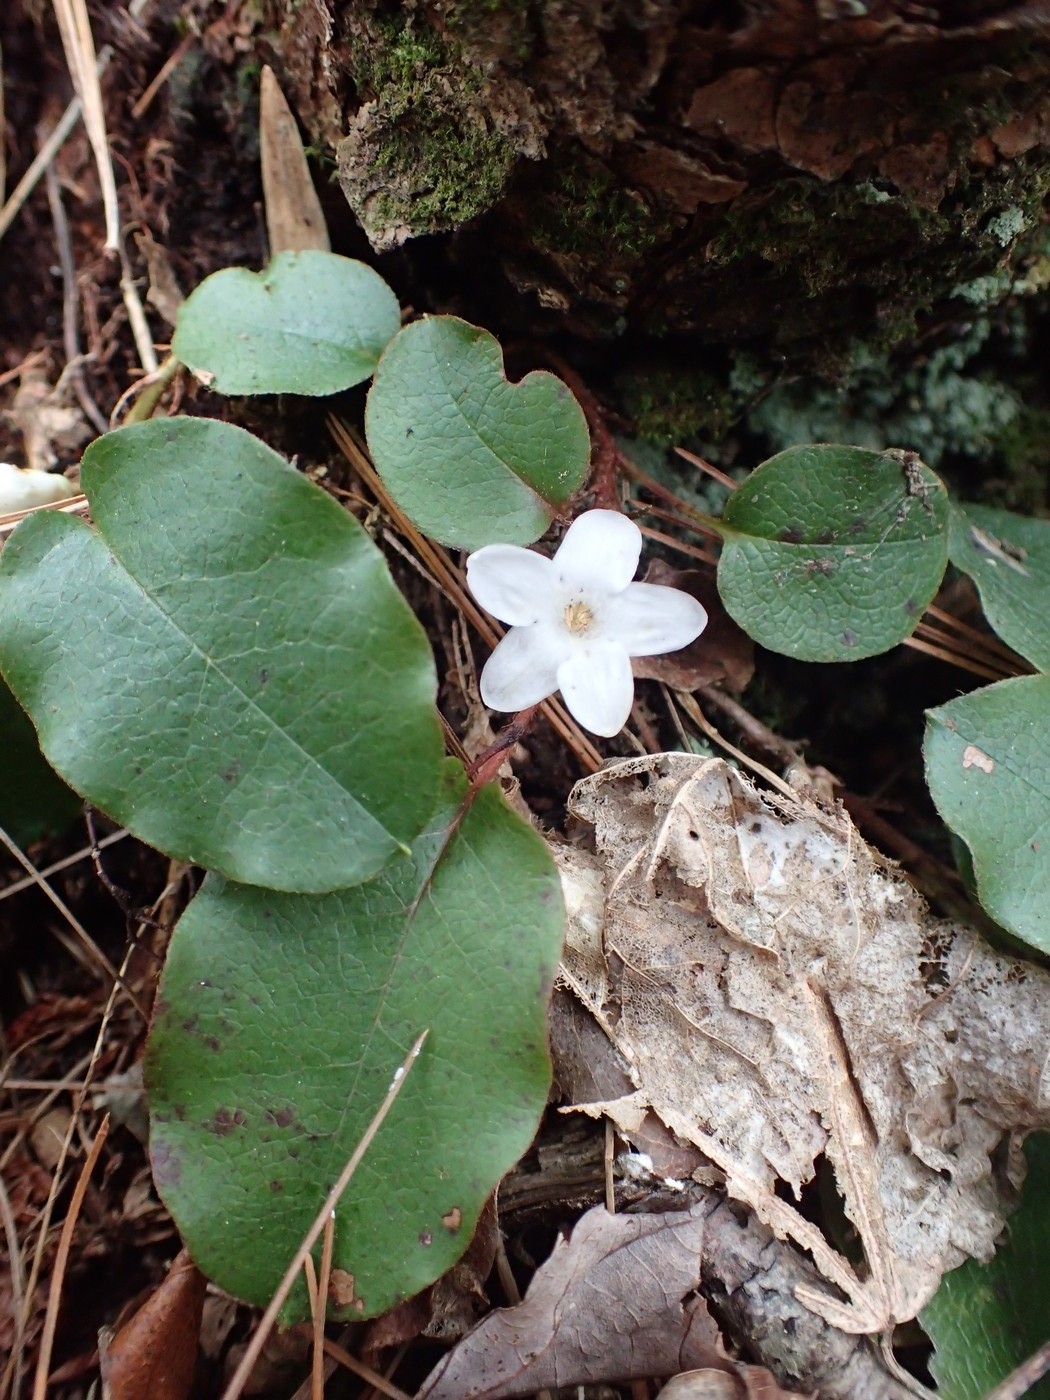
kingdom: Plantae
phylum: Tracheophyta
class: Magnoliopsida
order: Ericales
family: Ericaceae
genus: Epigaea
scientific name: Epigaea repens
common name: Gravelroot
